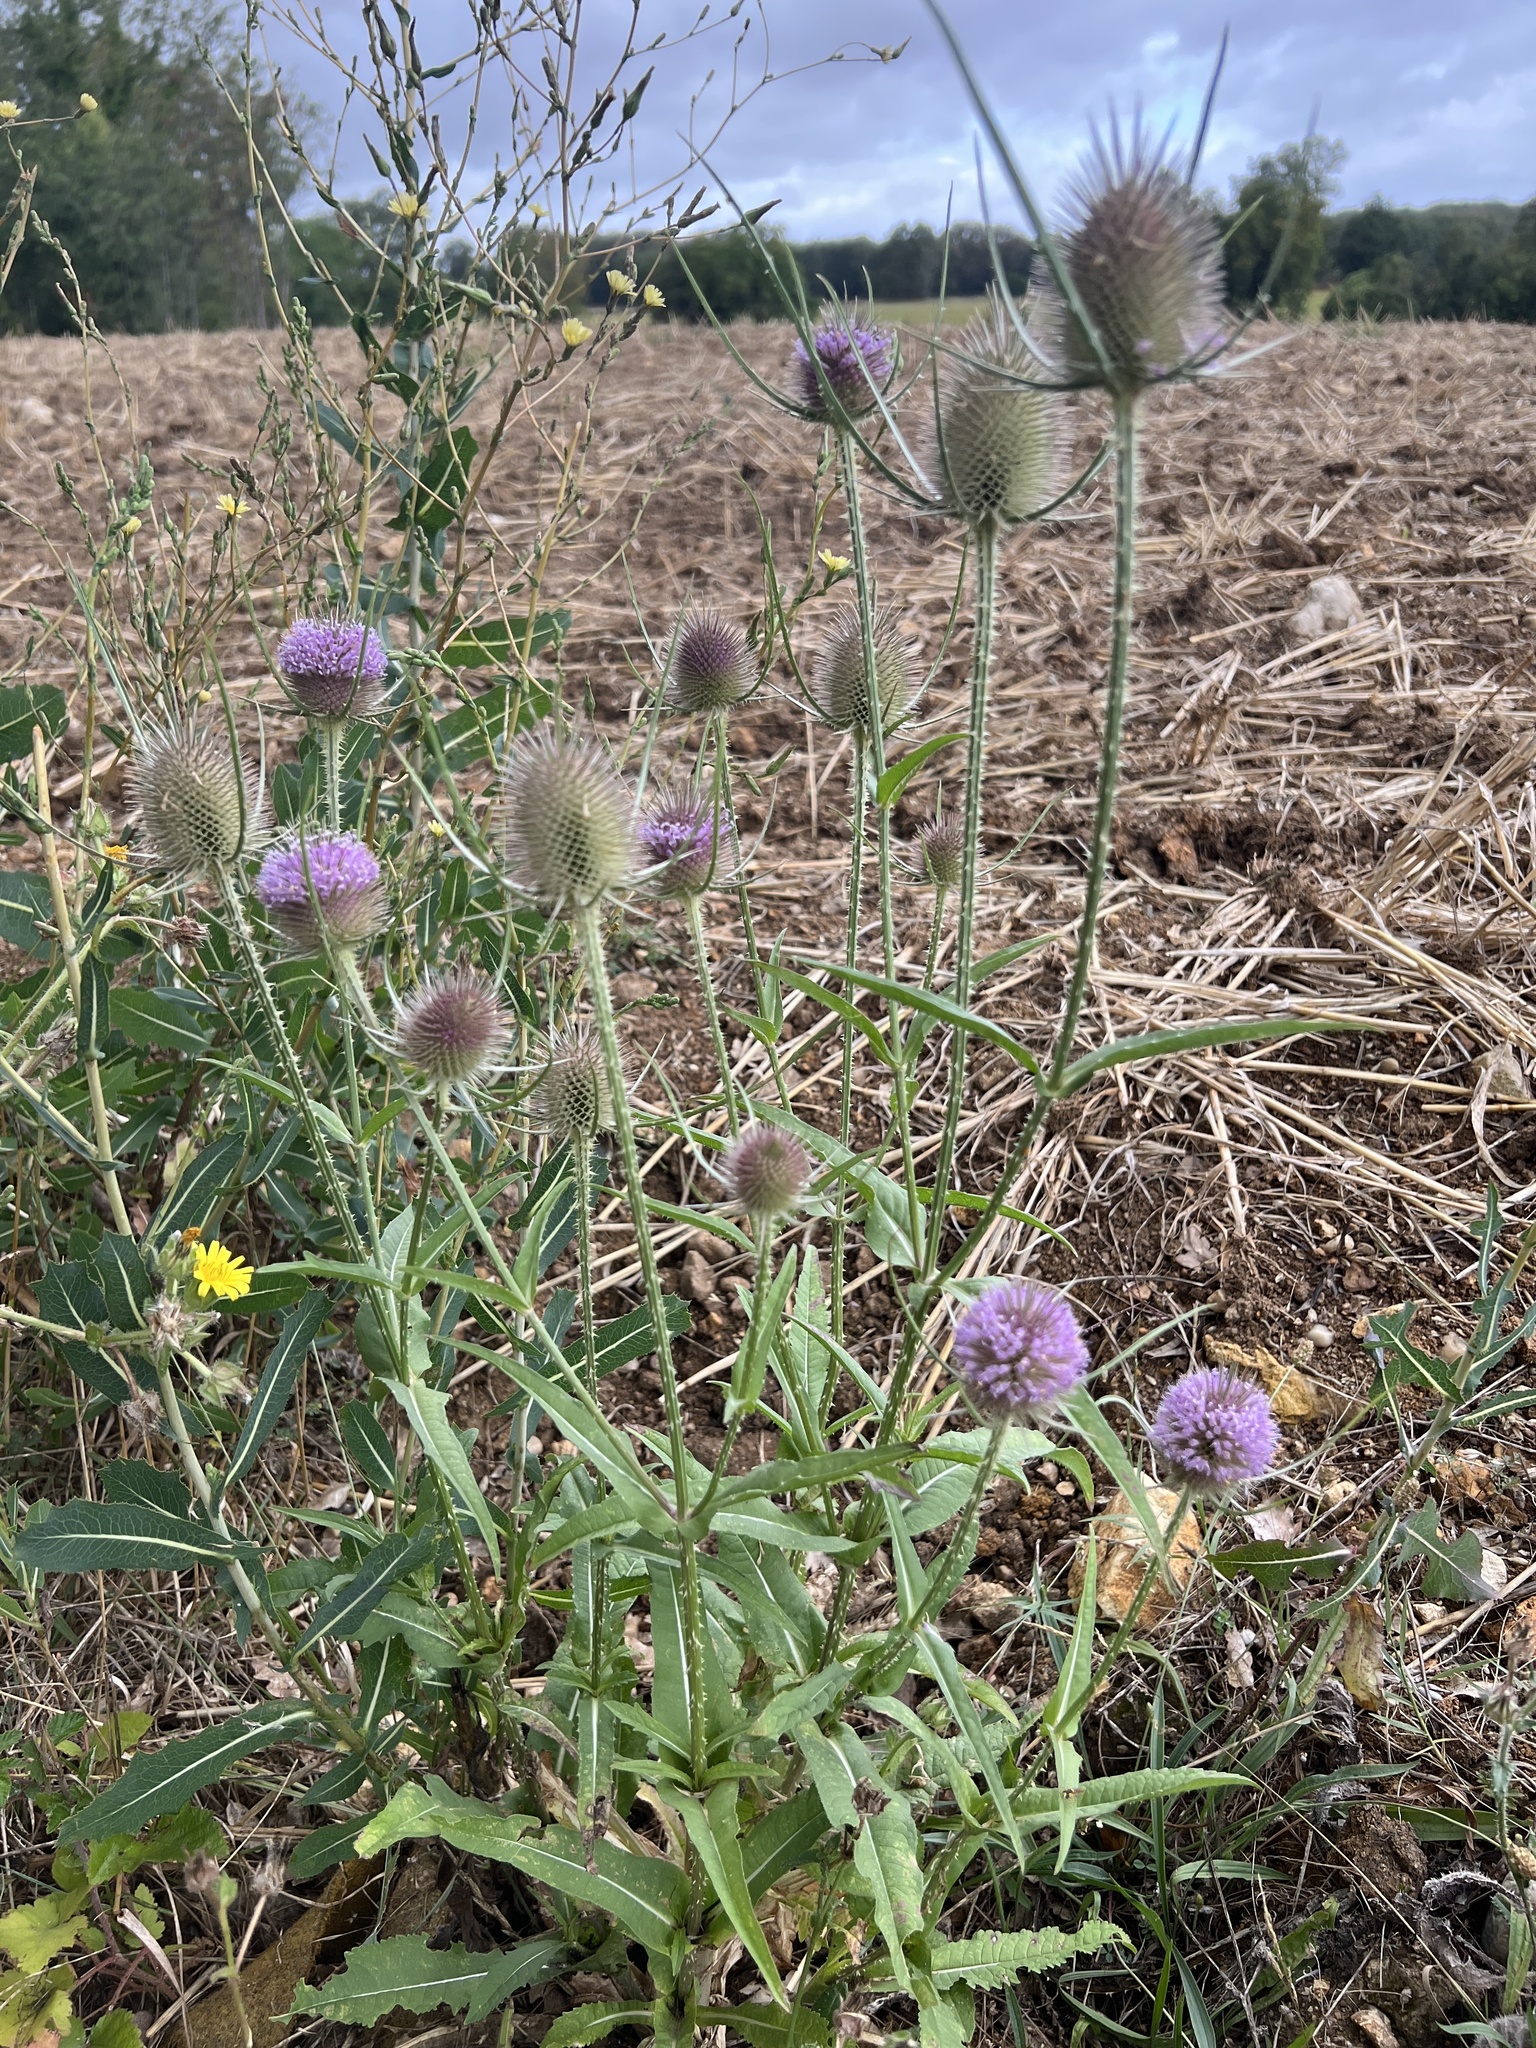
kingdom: Plantae
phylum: Tracheophyta
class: Magnoliopsida
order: Dipsacales
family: Caprifoliaceae
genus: Dipsacus
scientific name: Dipsacus fullonum
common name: Teasel
